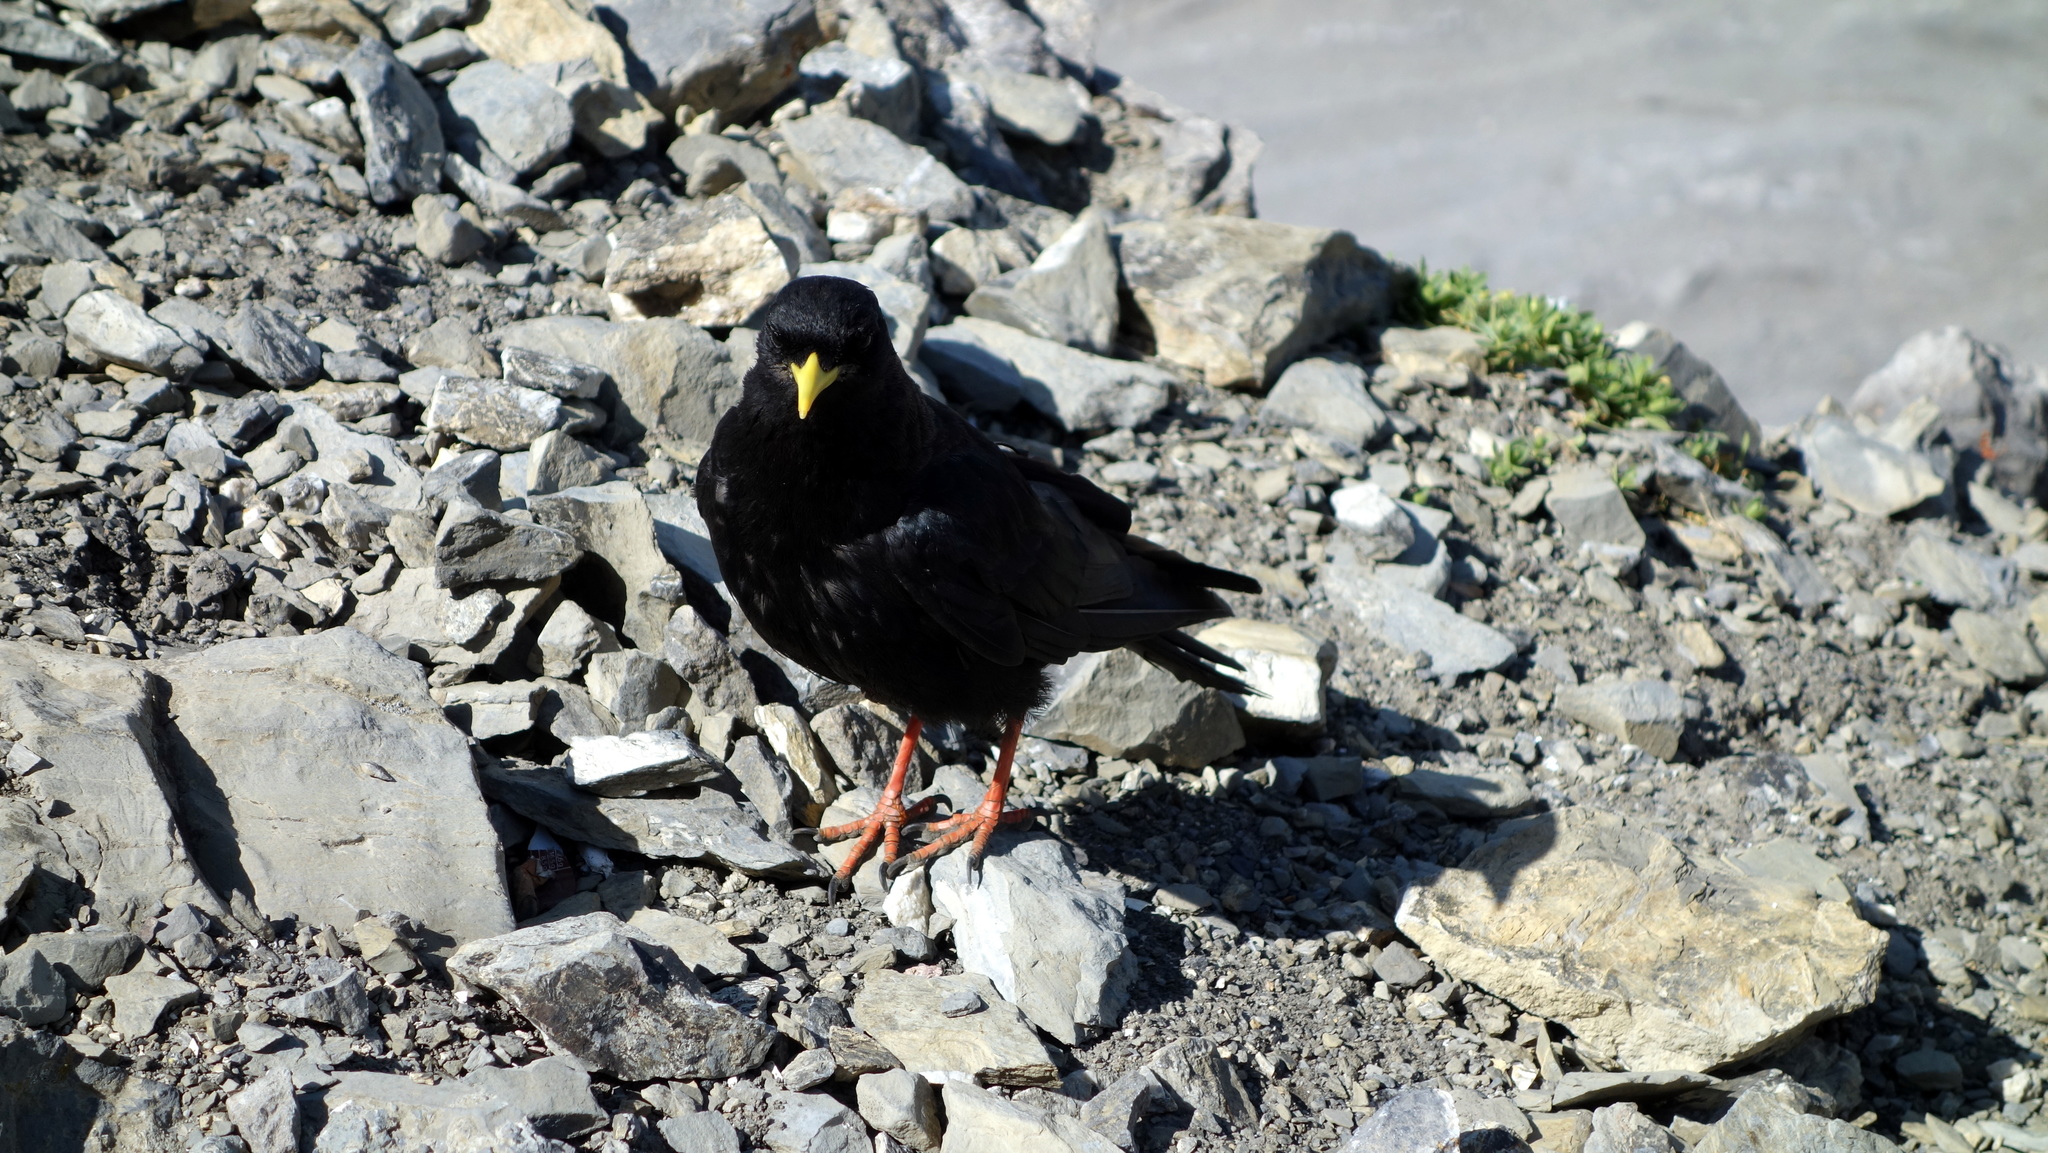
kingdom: Animalia
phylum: Chordata
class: Aves
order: Passeriformes
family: Corvidae
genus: Pyrrhocorax
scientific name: Pyrrhocorax graculus
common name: Alpine chough
